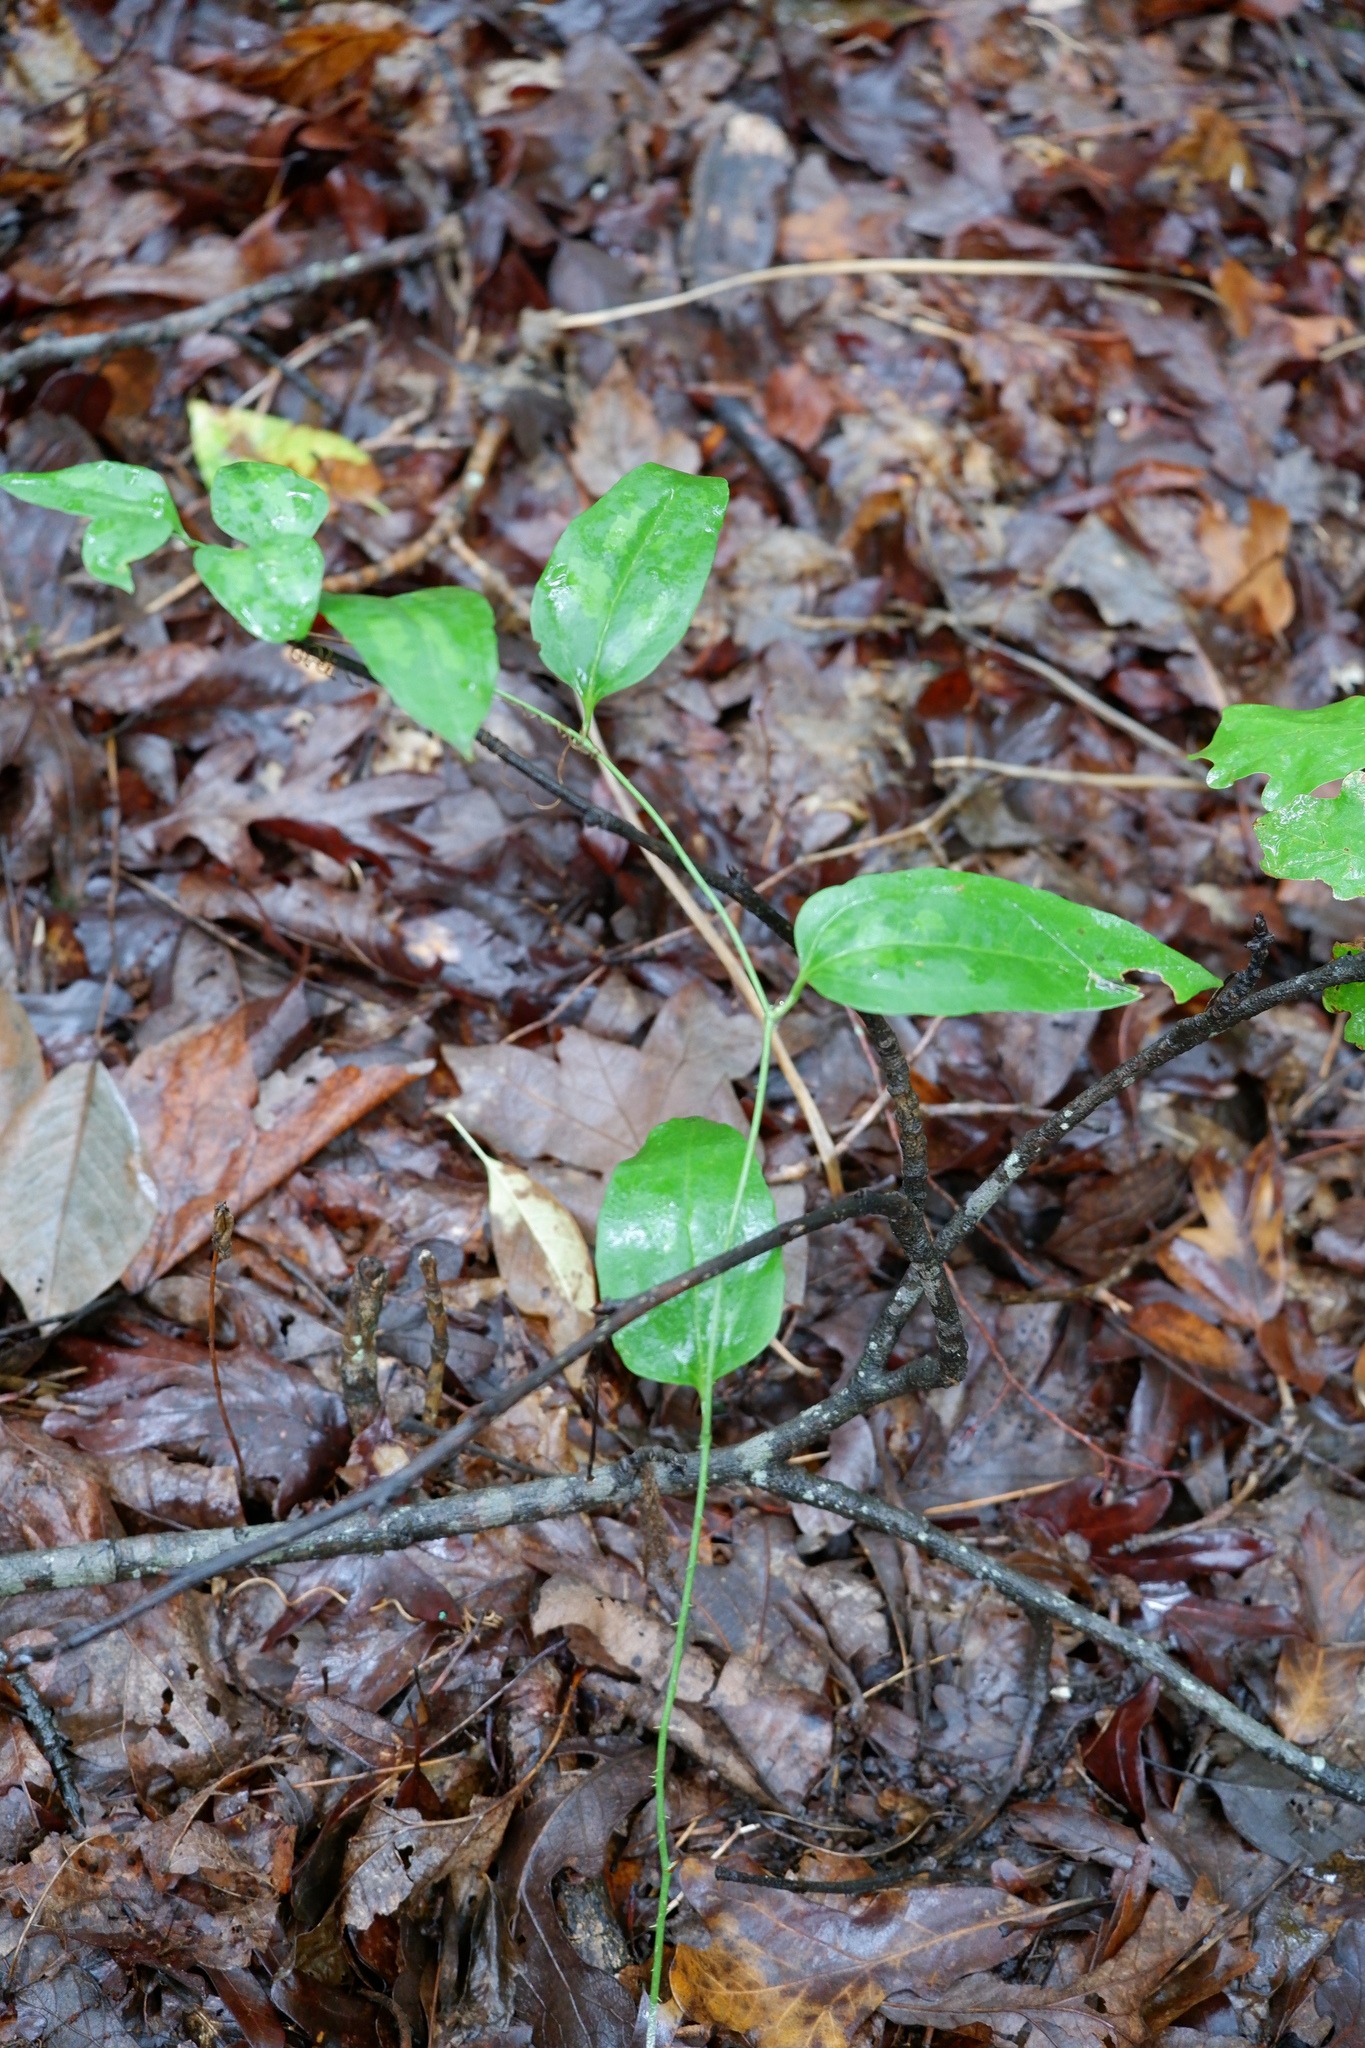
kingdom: Plantae
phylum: Tracheophyta
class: Liliopsida
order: Liliales
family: Smilacaceae
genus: Smilax
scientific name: Smilax maritima
